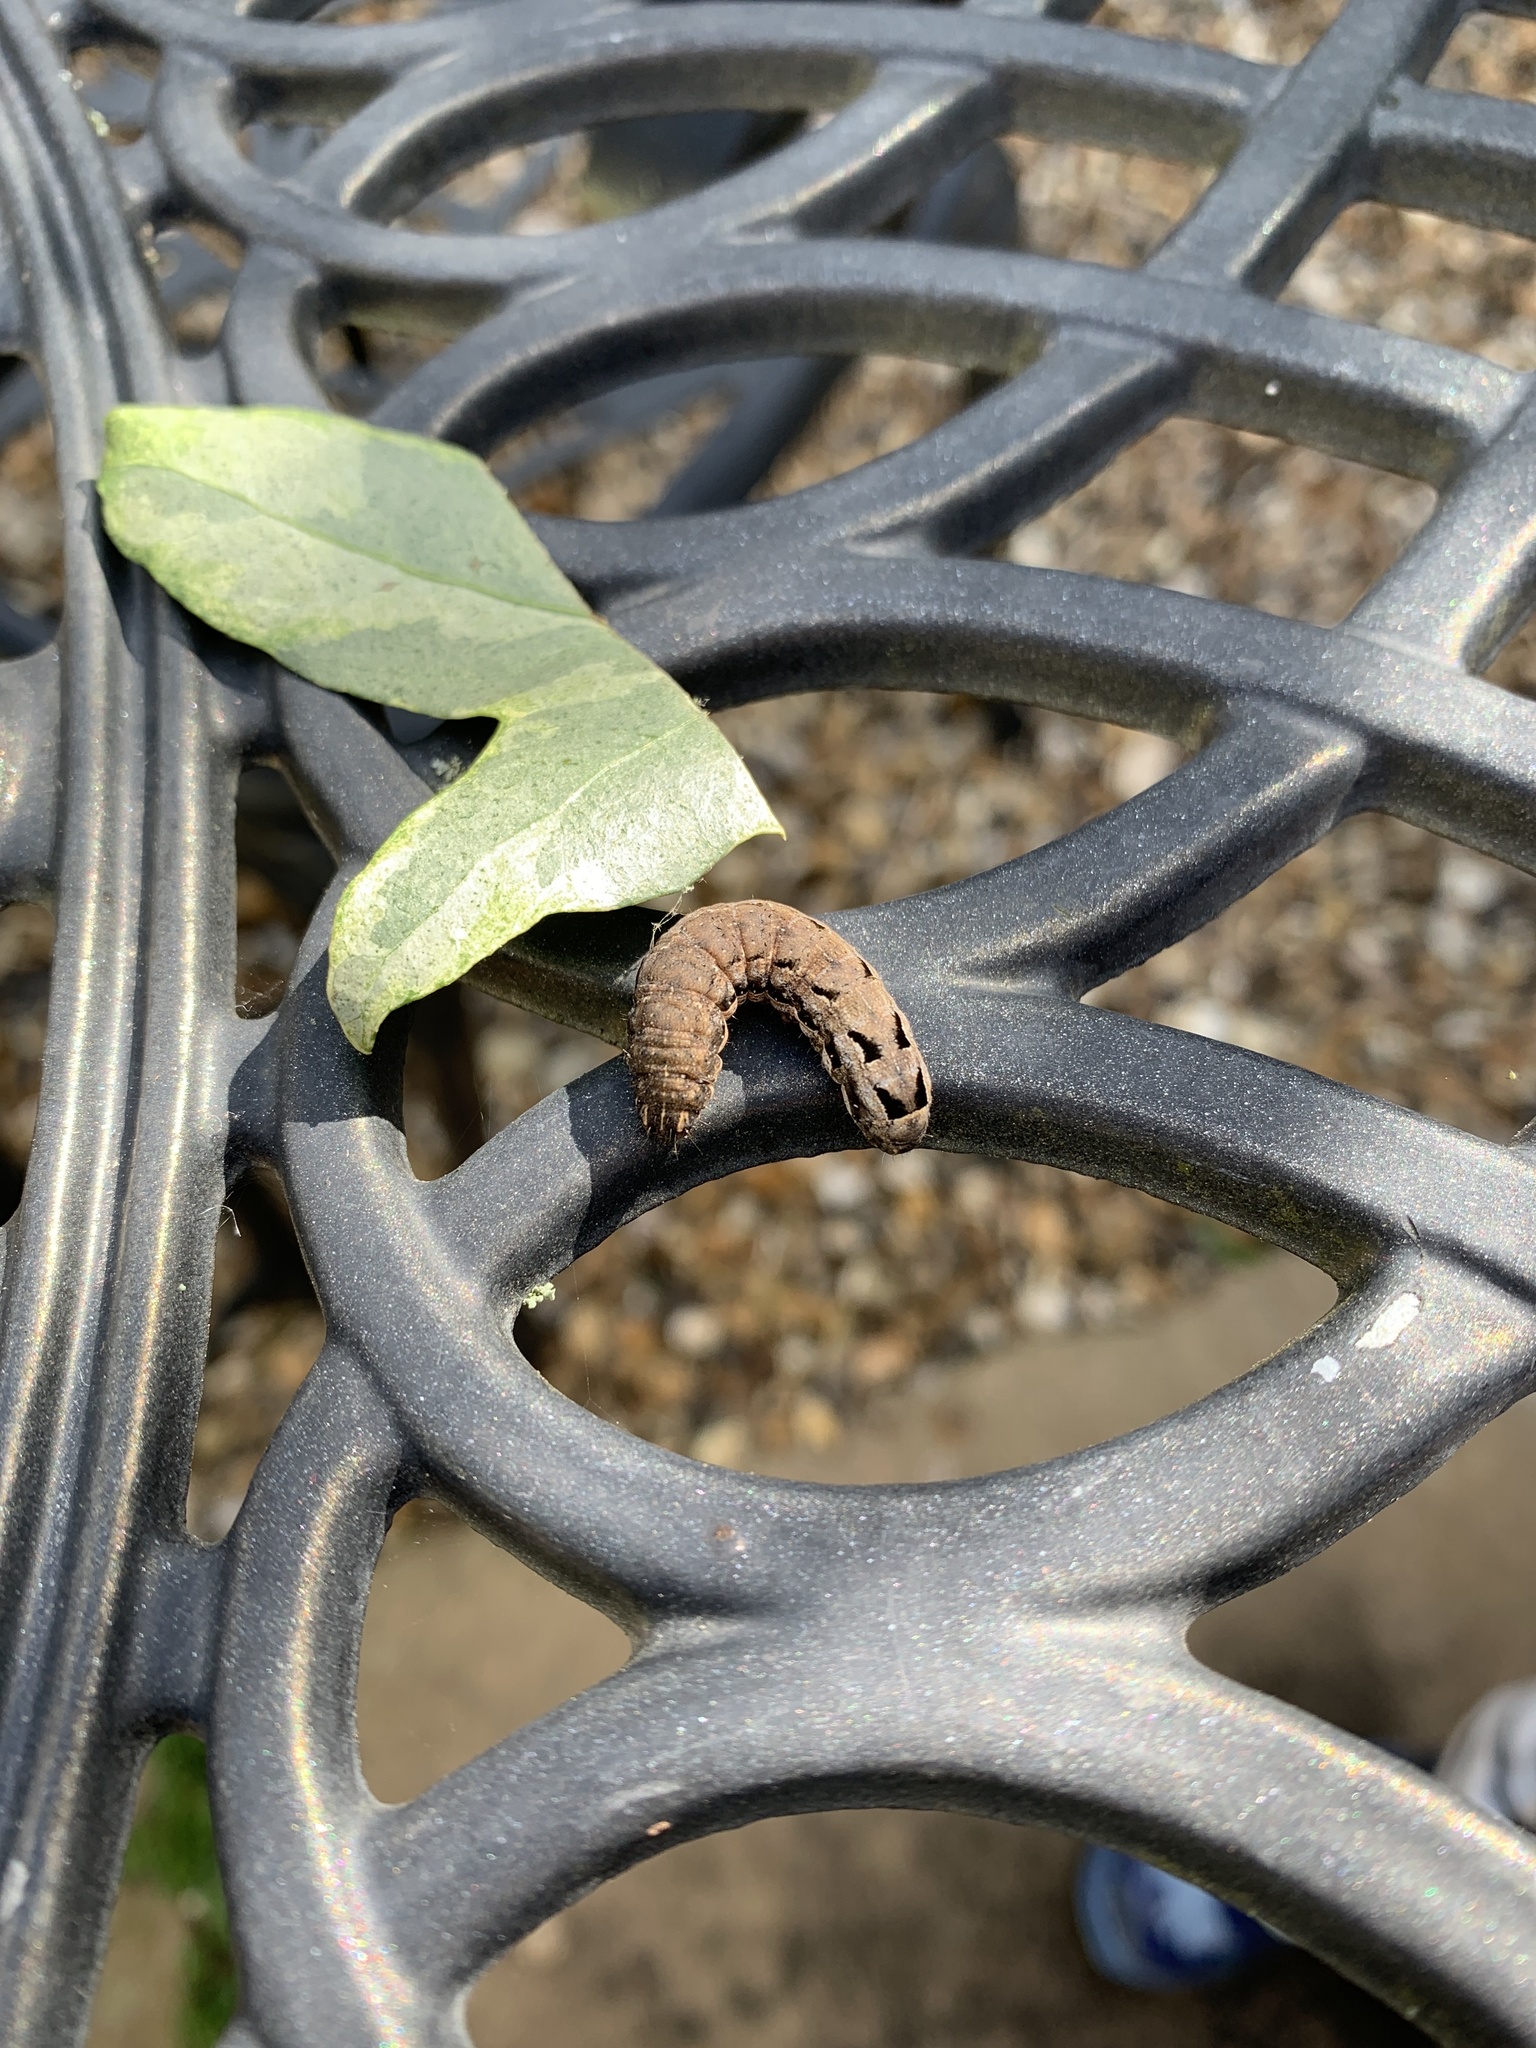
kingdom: Animalia
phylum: Arthropoda
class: Insecta
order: Lepidoptera
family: Noctuidae
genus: Noctua
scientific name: Noctua comes
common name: Lesser yellow underwing
